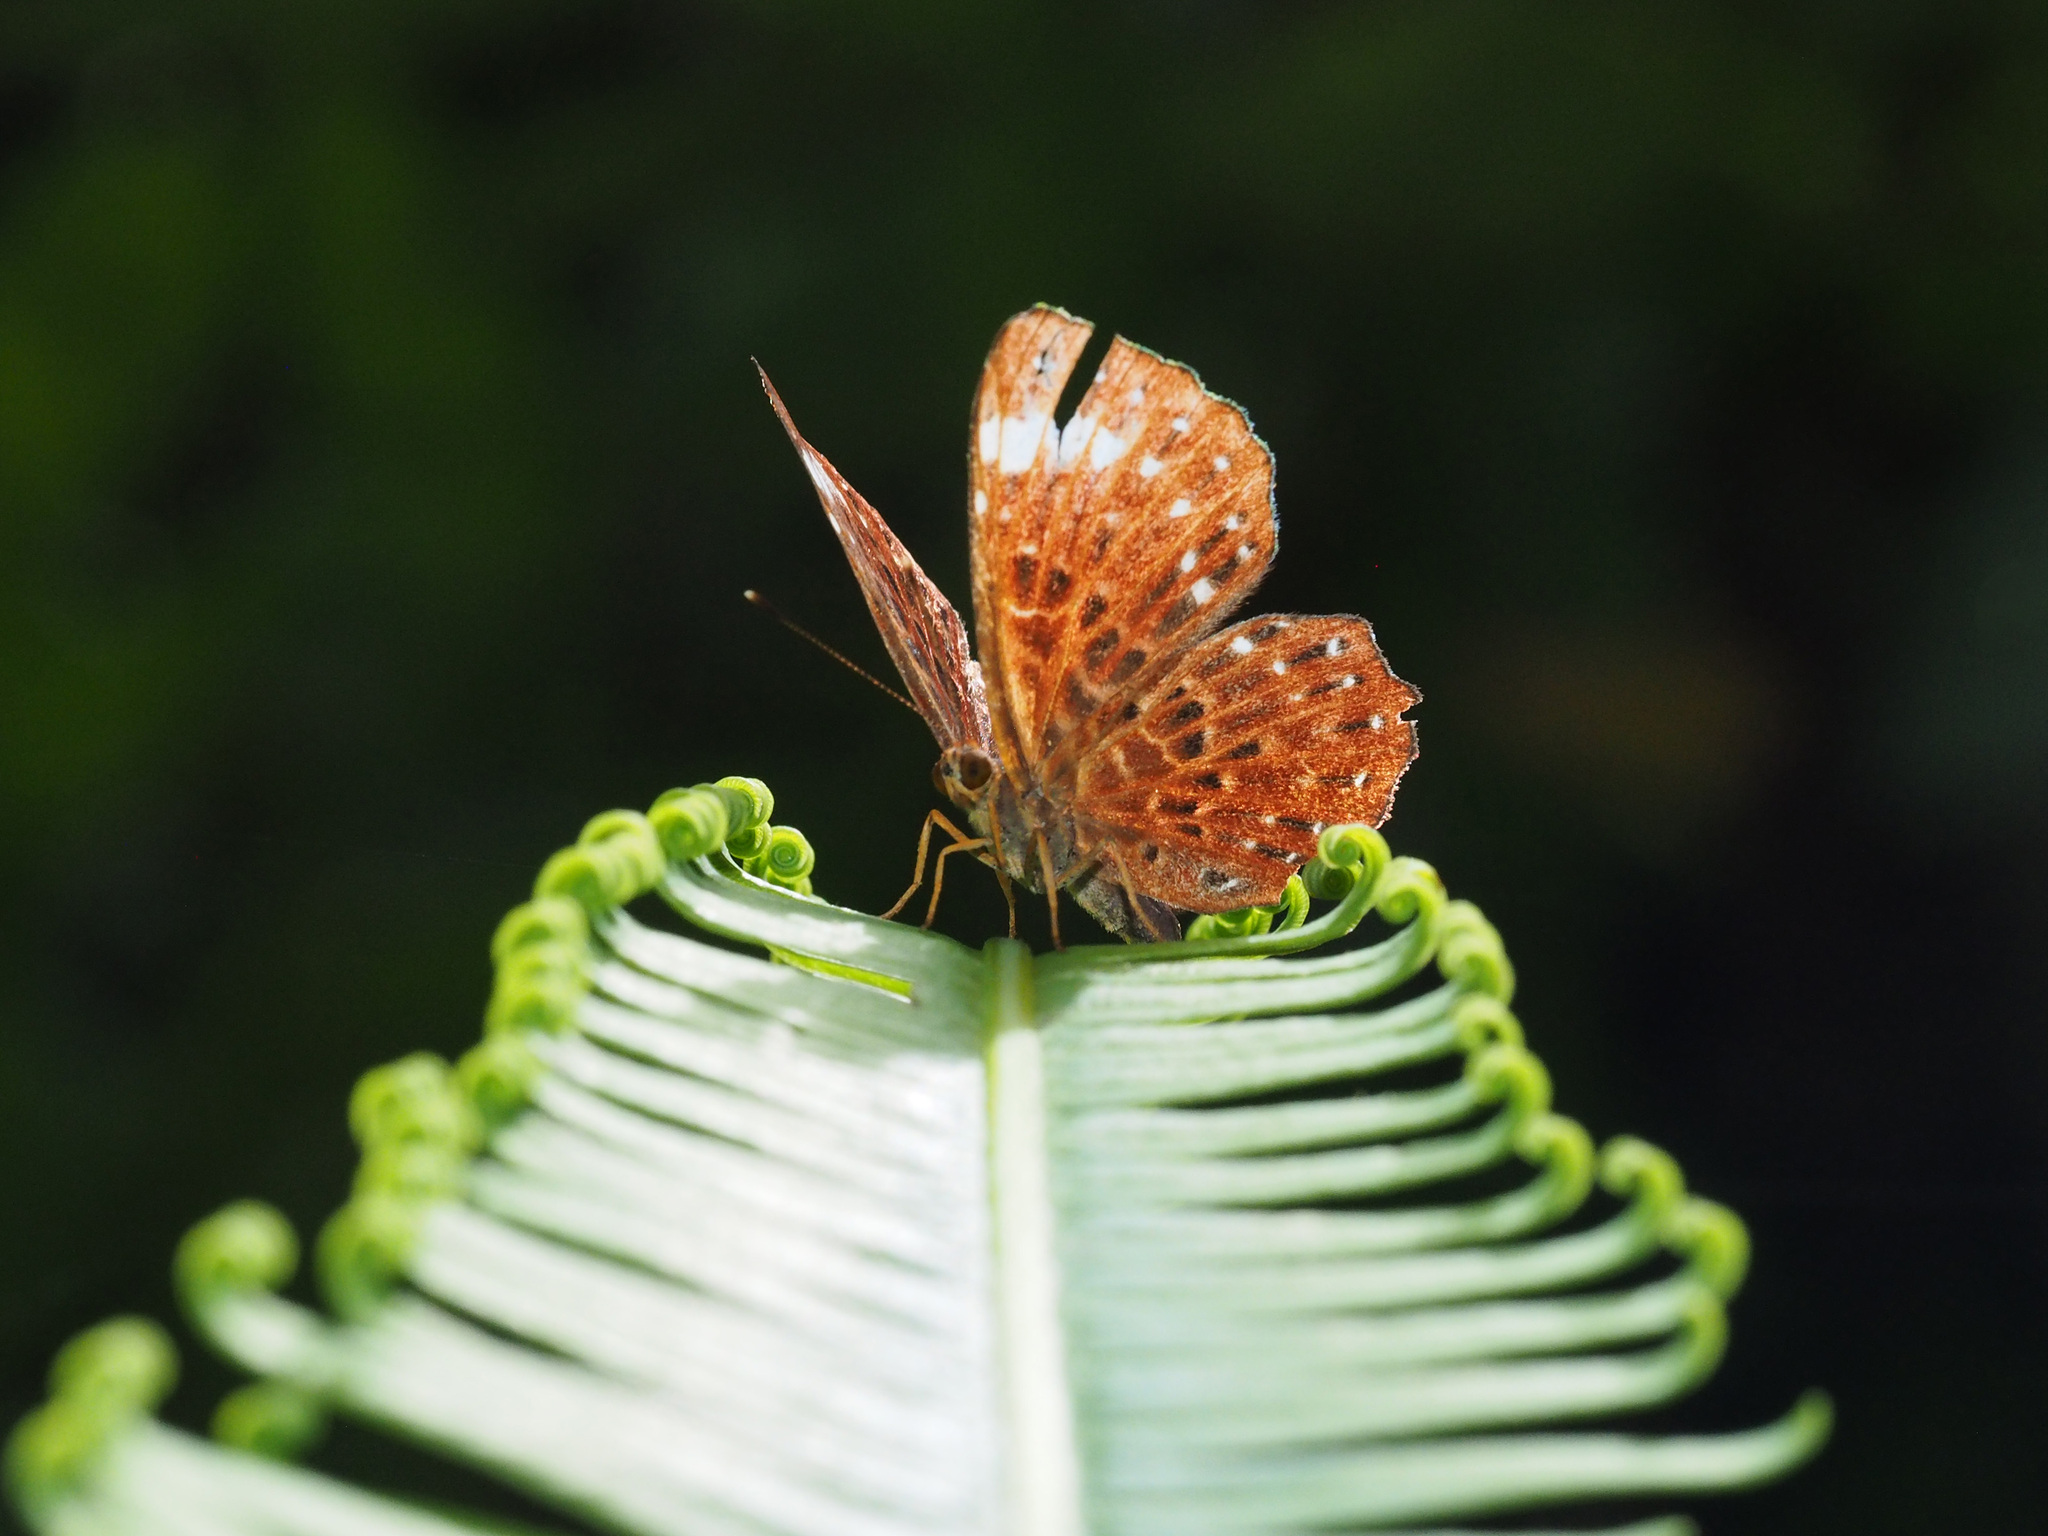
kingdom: Animalia
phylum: Arthropoda
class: Insecta
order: Lepidoptera
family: Riodinidae
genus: Zemeros
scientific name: Zemeros flegyas
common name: Punchinello
